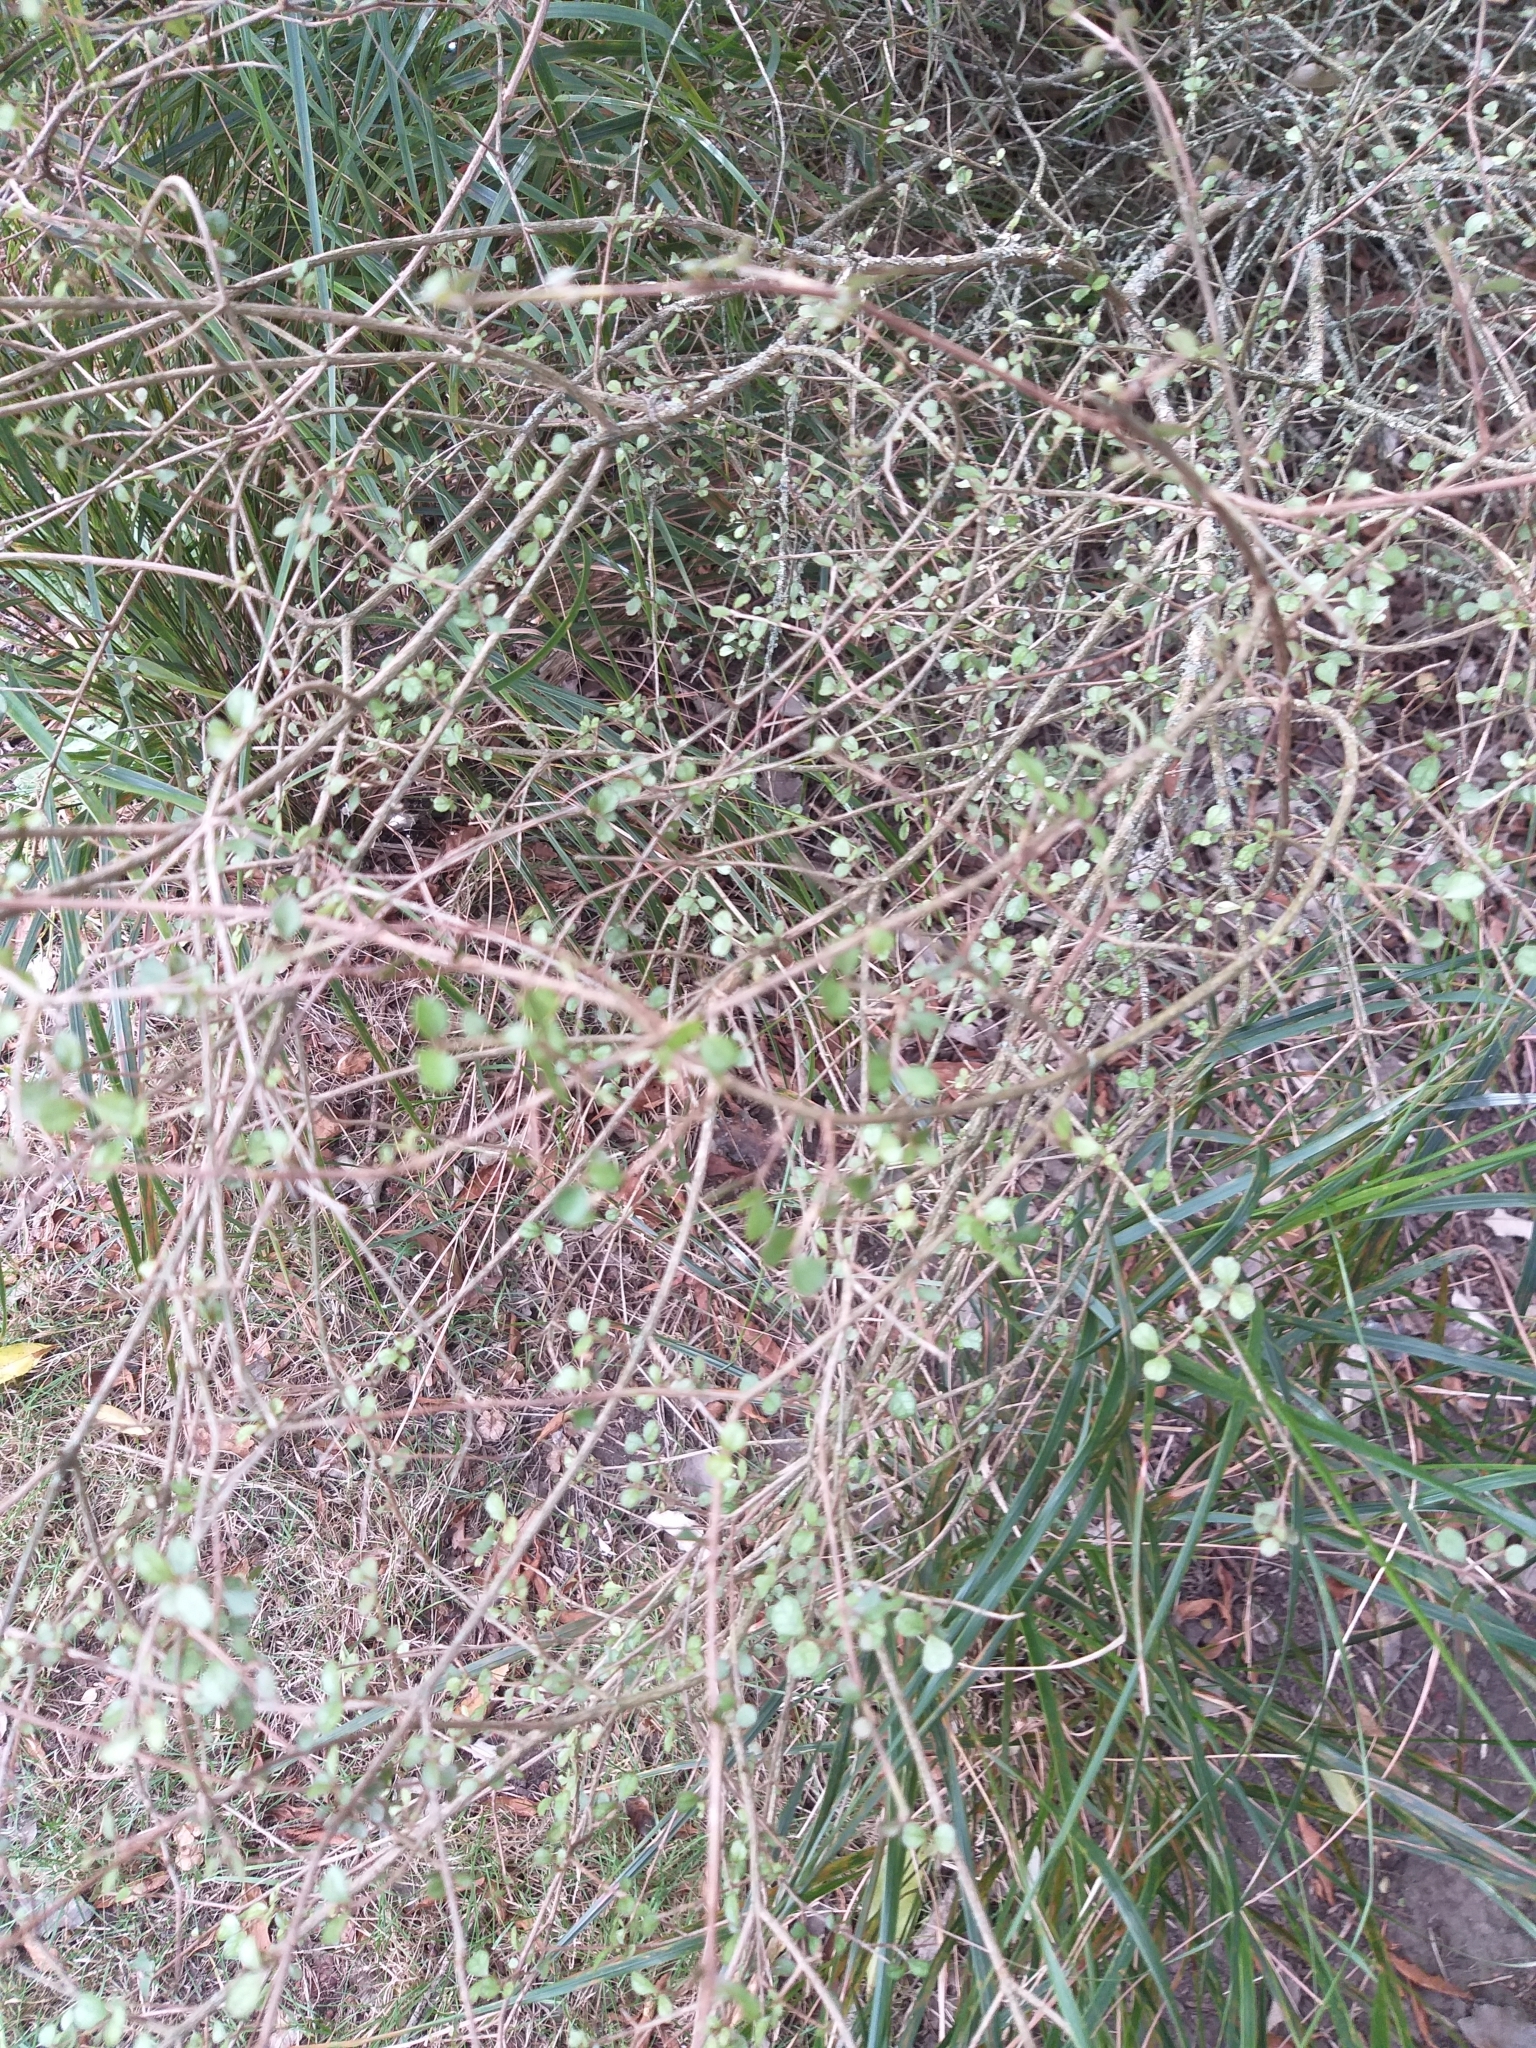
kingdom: Plantae
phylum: Tracheophyta
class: Magnoliopsida
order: Myrtales
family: Myrtaceae
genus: Lophomyrtus
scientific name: Lophomyrtus obcordata
